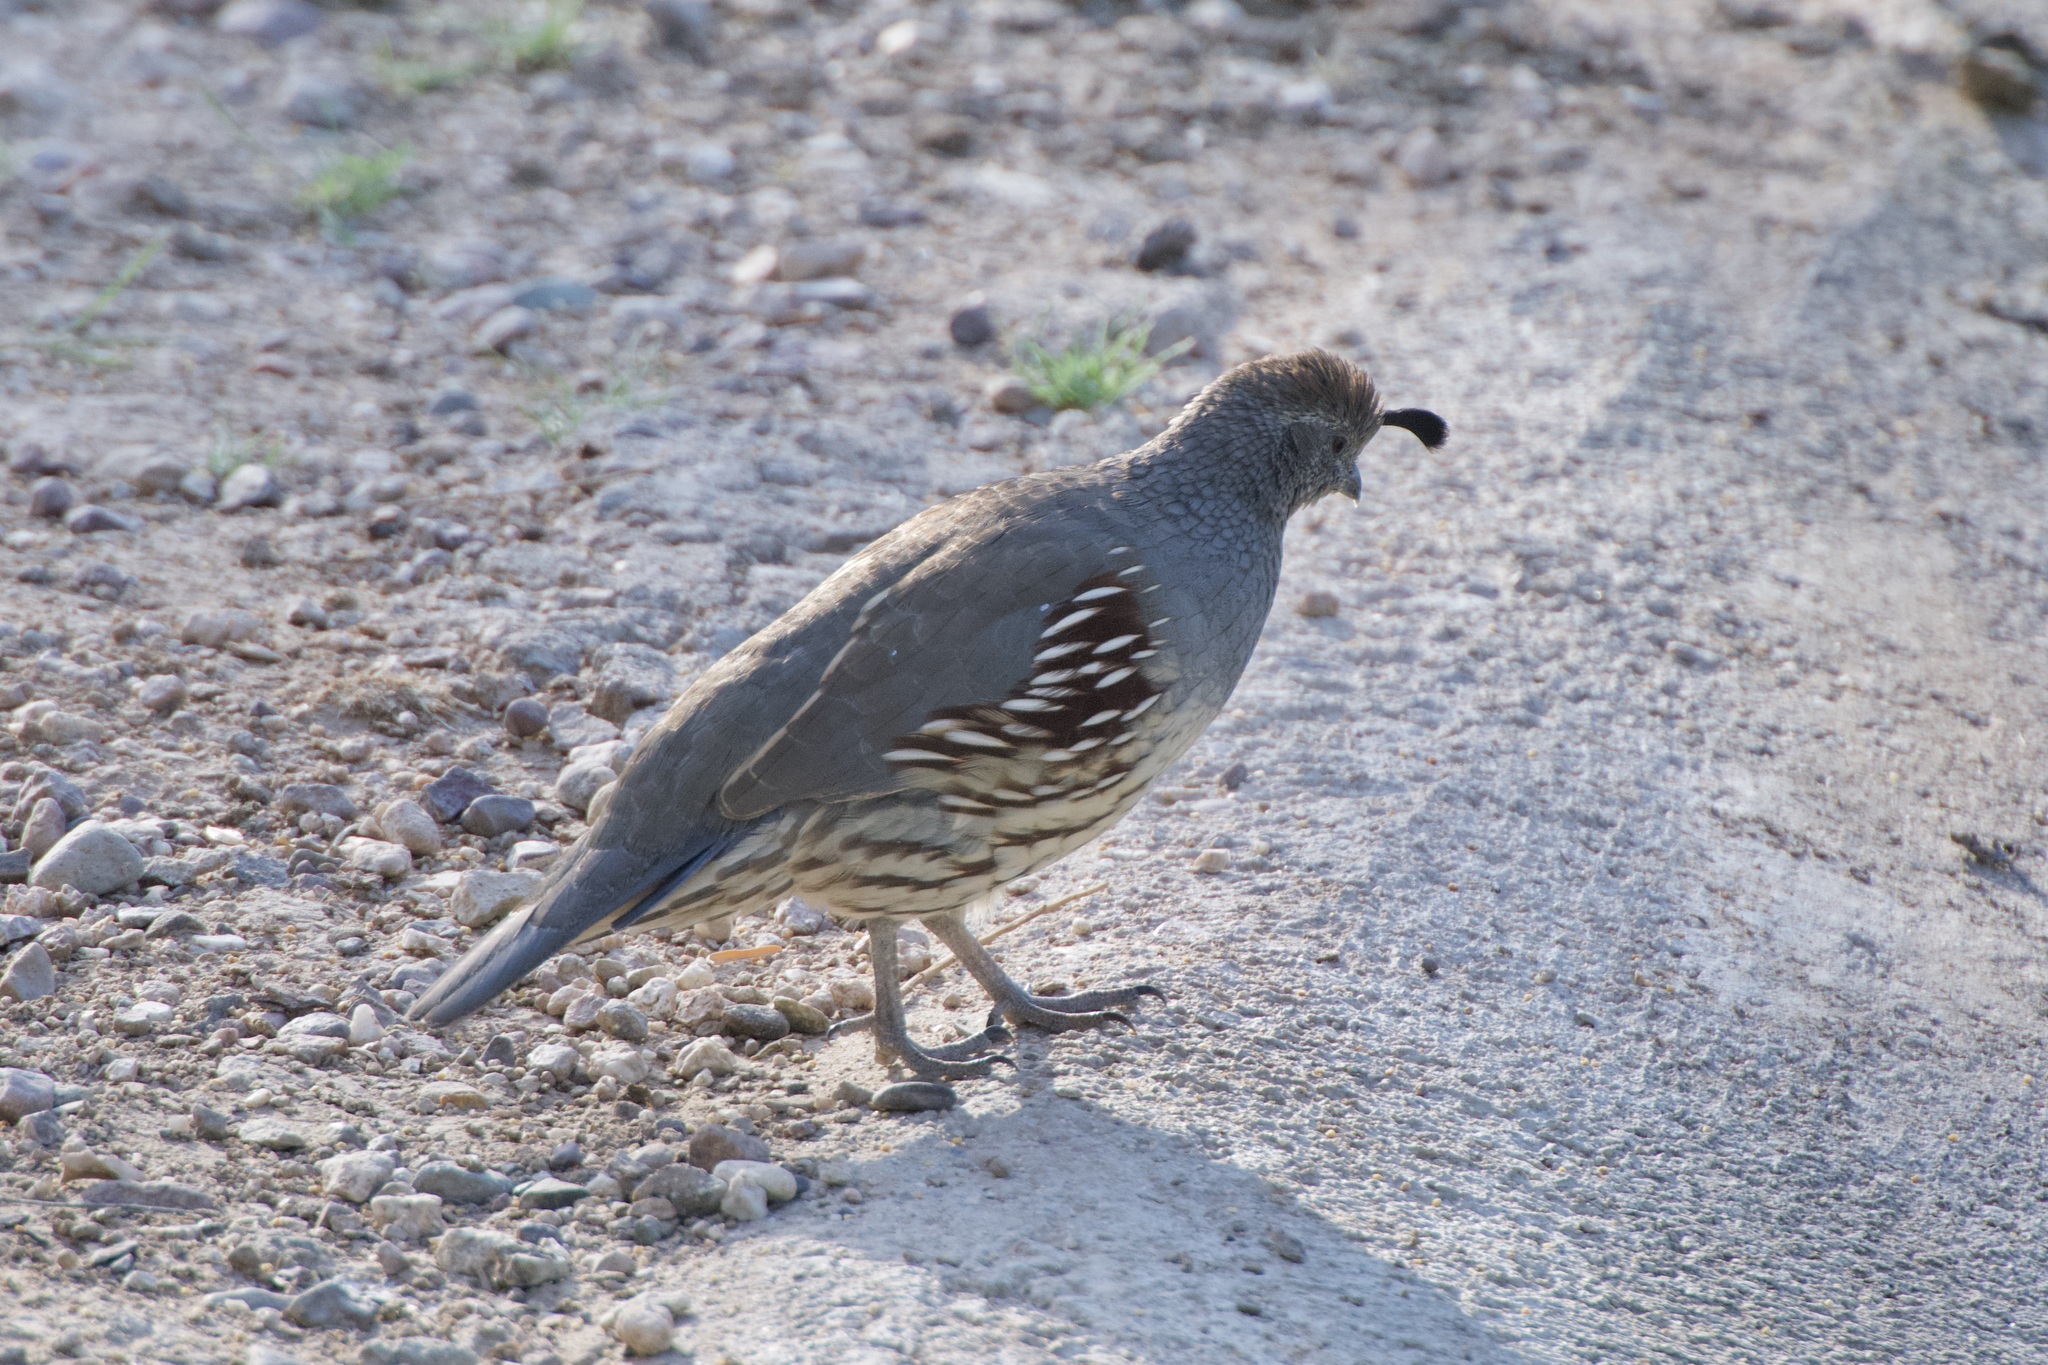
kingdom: Animalia
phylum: Chordata
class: Aves
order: Galliformes
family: Odontophoridae
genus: Callipepla
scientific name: Callipepla gambelii
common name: Gambel's quail
